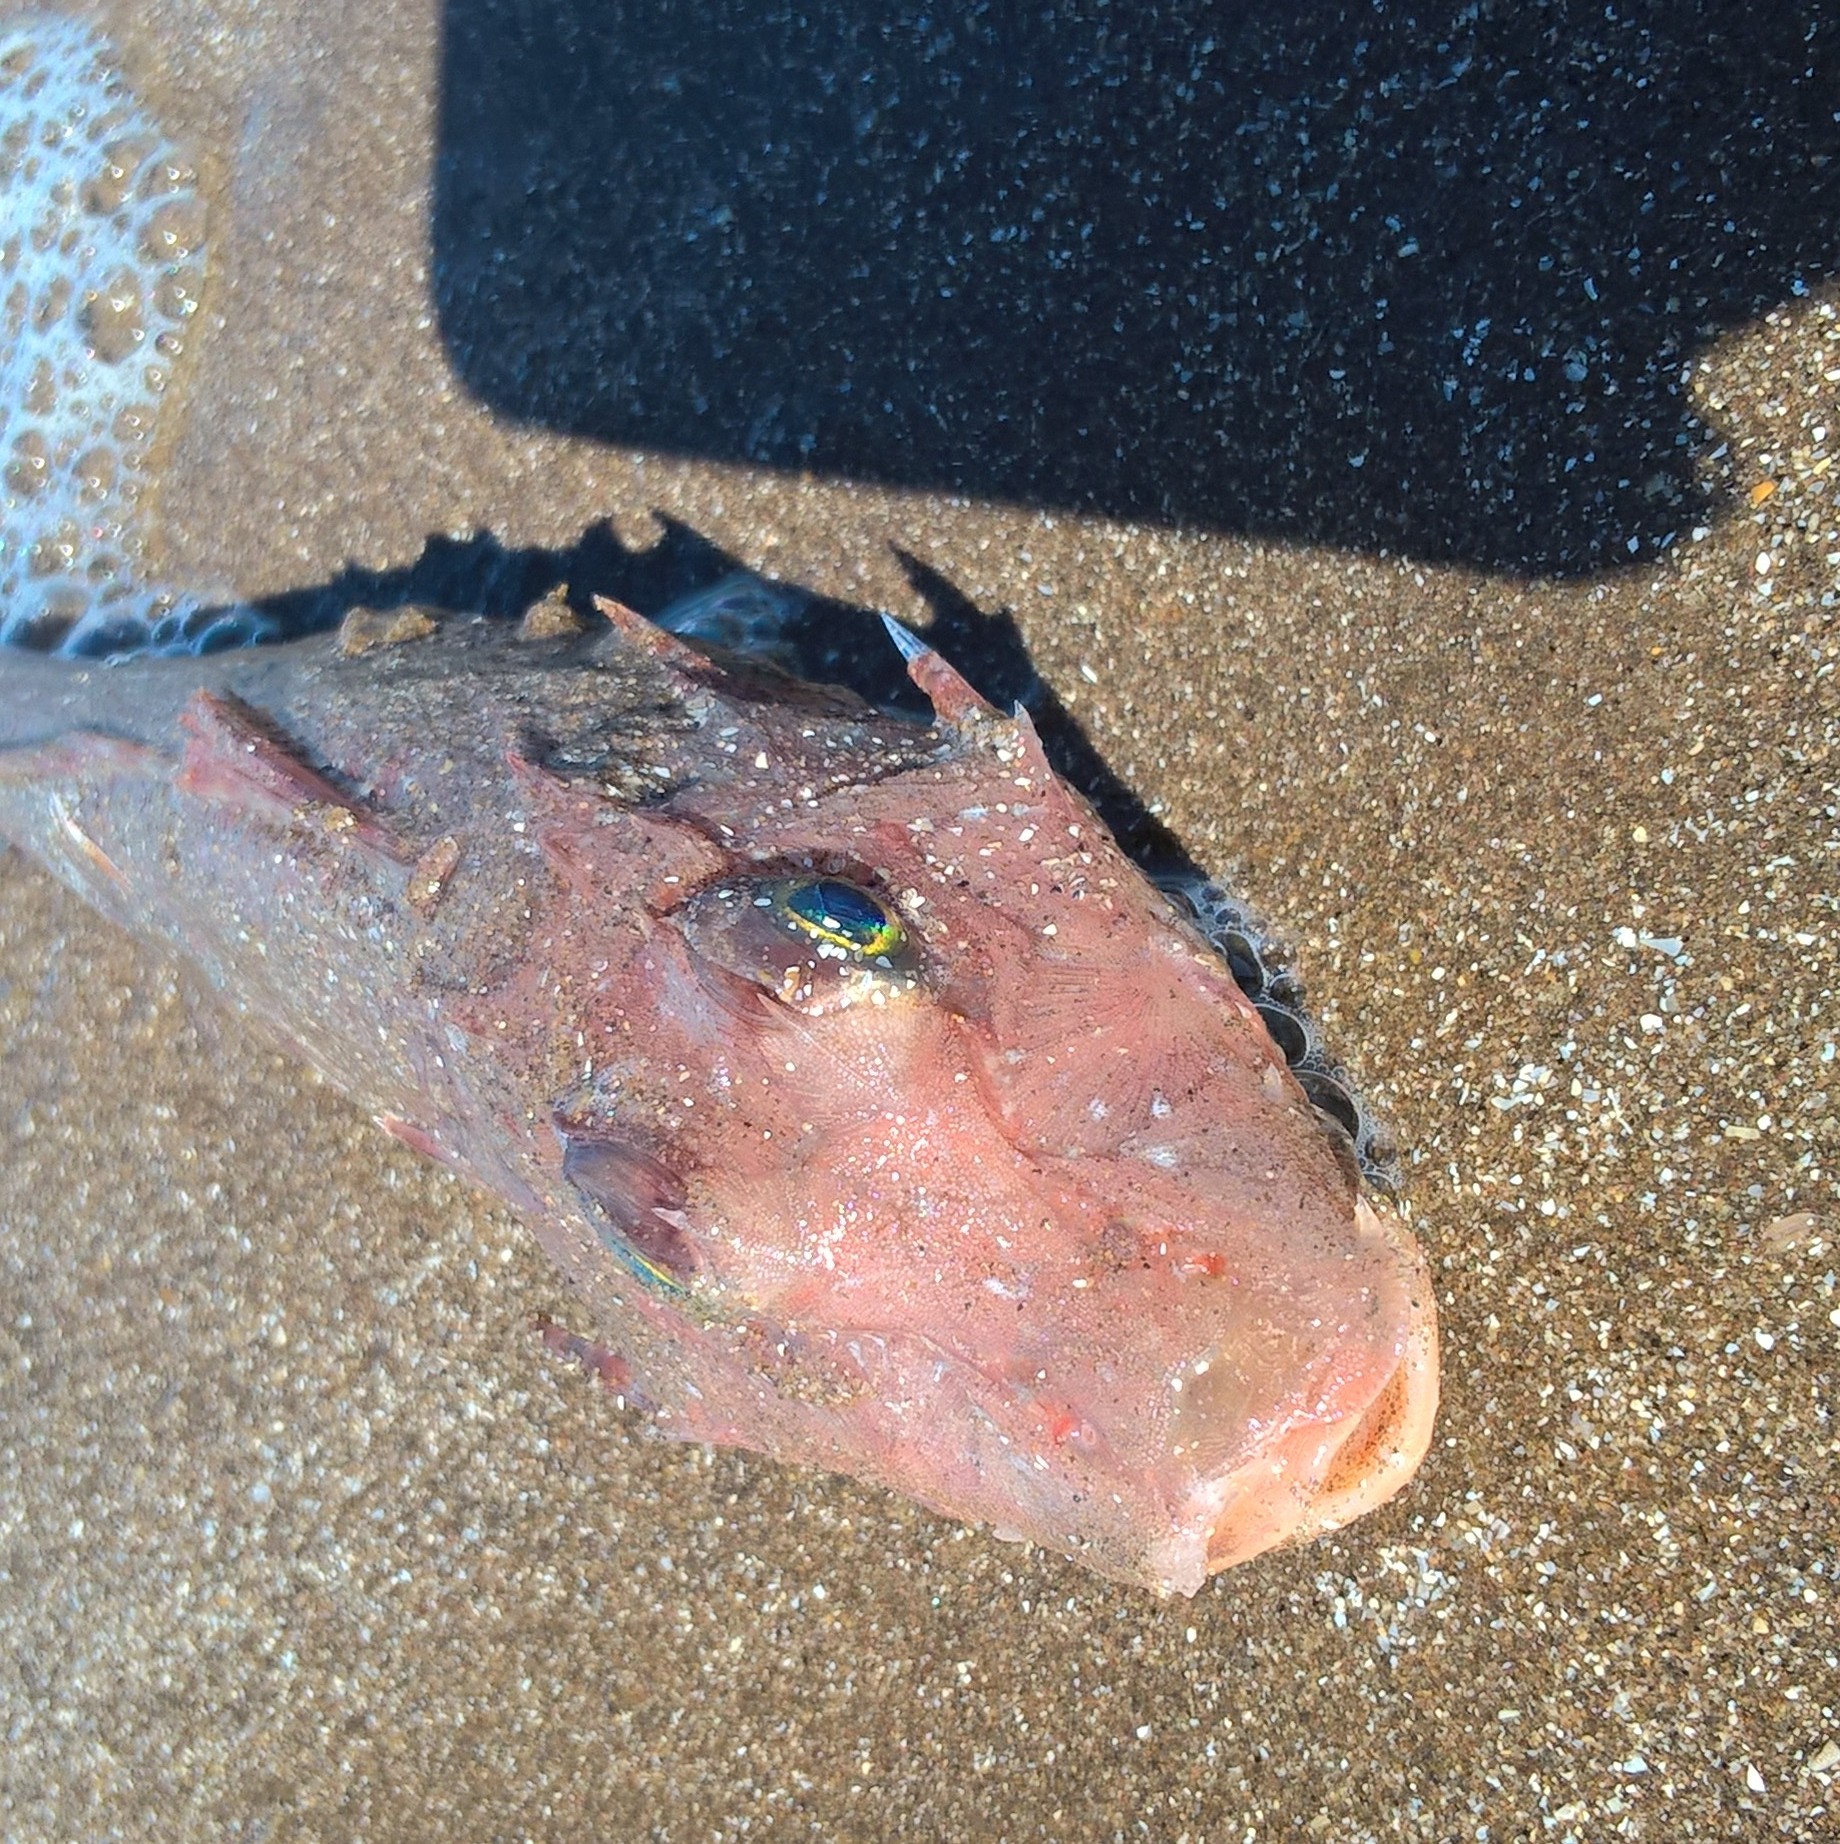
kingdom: Animalia
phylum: Chordata
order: Scorpaeniformes
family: Triglidae
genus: Prionotus
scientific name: Prionotus nudigula
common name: Atlantic searobin
